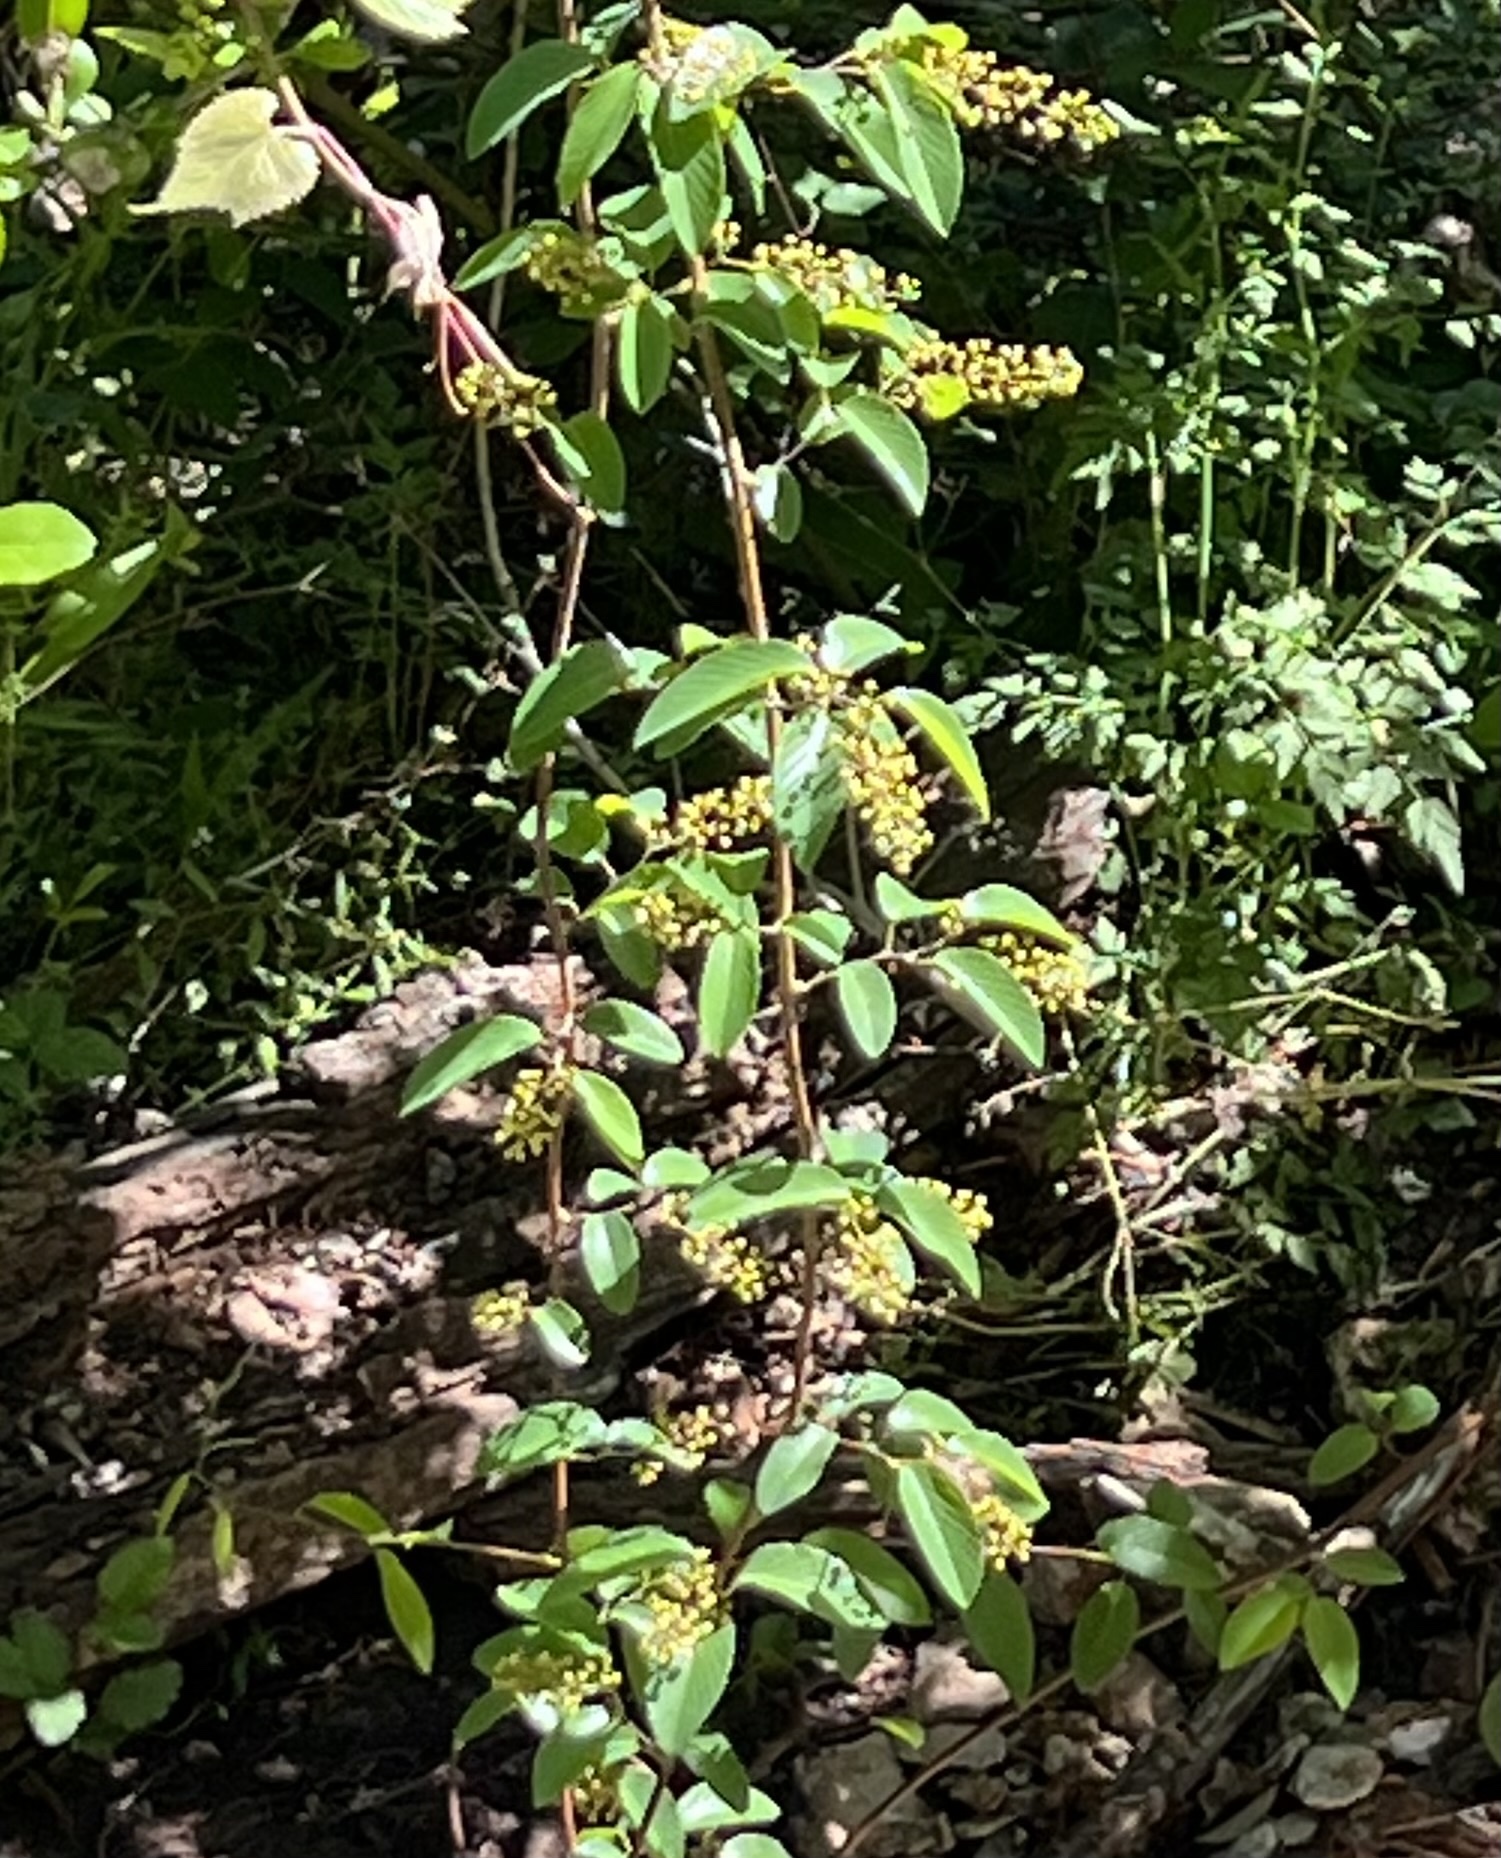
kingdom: Plantae
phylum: Tracheophyta
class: Magnoliopsida
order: Rosales
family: Rhamnaceae
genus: Berchemia
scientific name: Berchemia scandens
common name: Supplejack
